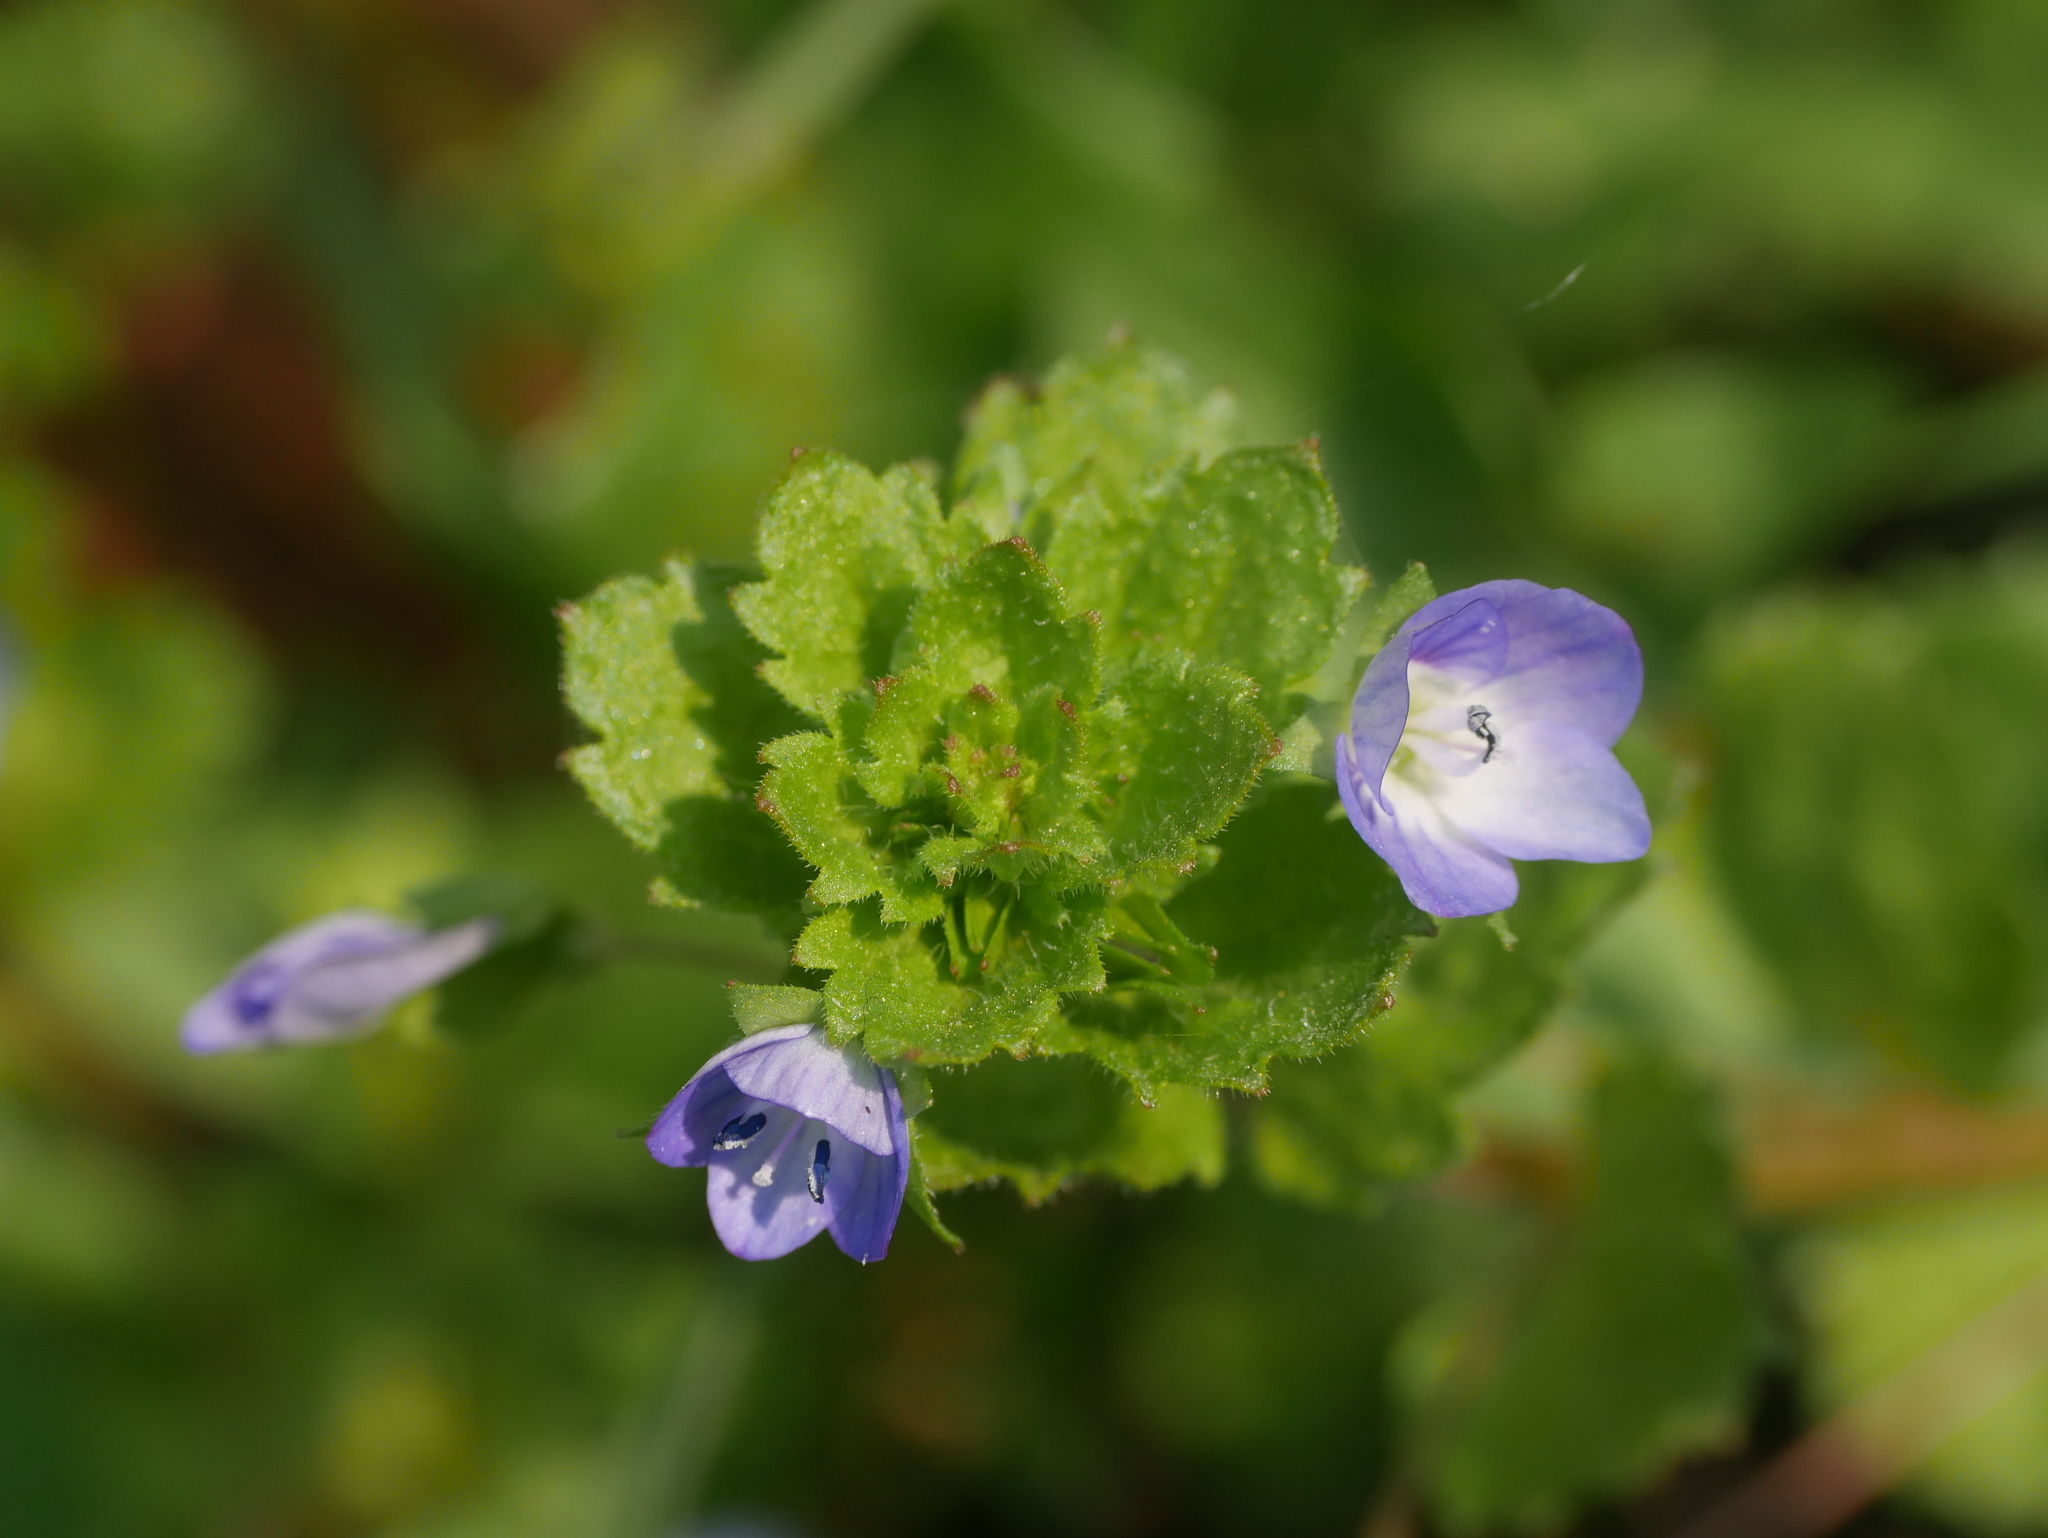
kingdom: Plantae
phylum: Tracheophyta
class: Magnoliopsida
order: Lamiales
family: Plantaginaceae
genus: Veronica
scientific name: Veronica persica
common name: Common field-speedwell
